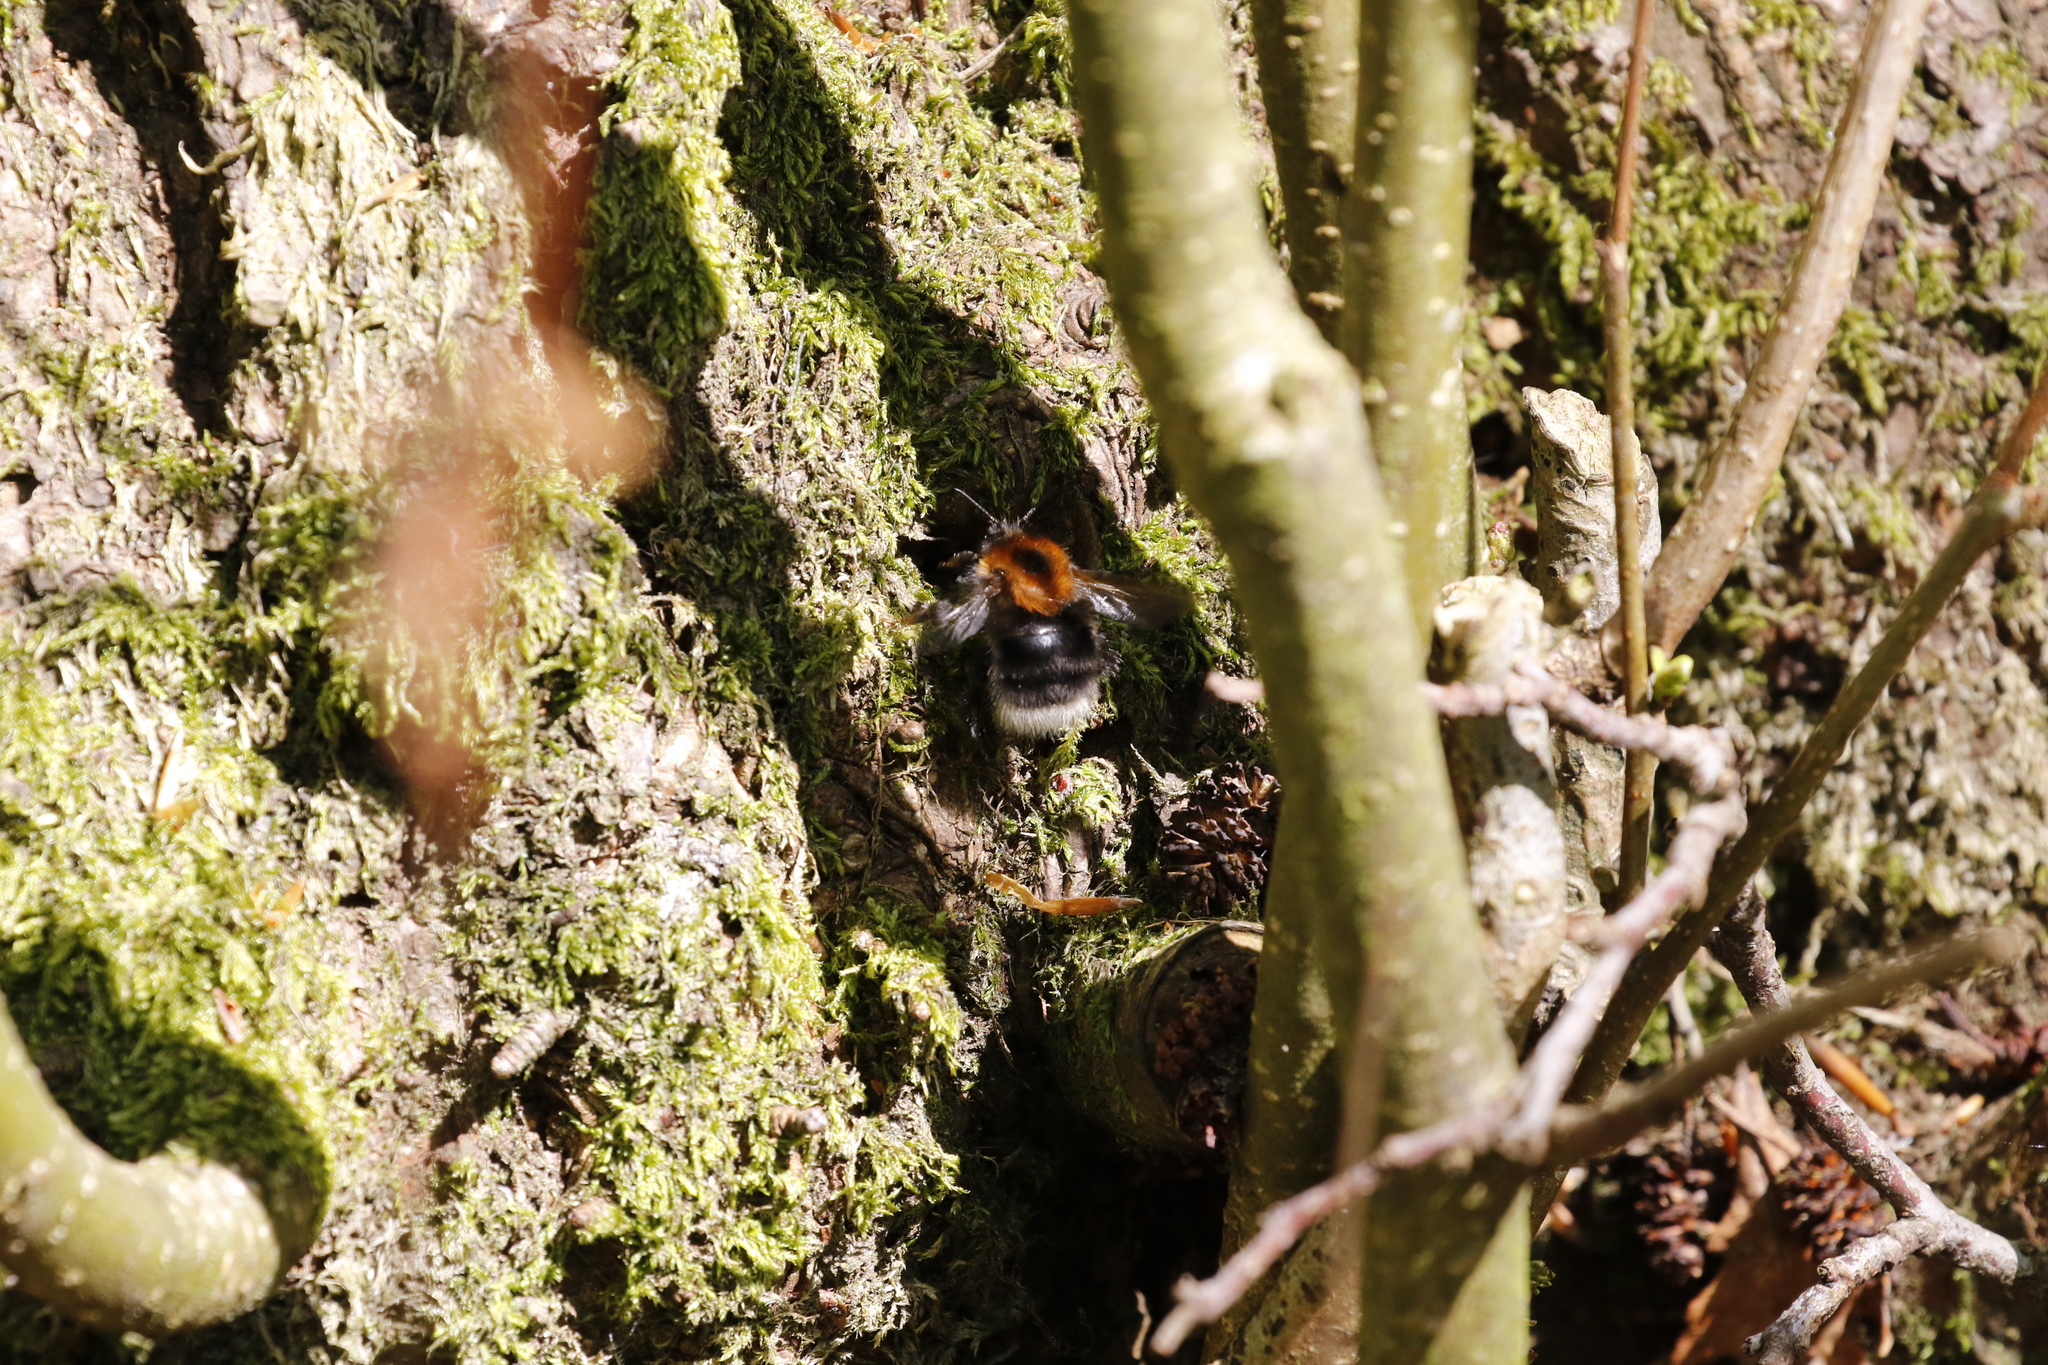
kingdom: Animalia
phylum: Arthropoda
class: Insecta
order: Hymenoptera
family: Apidae
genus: Bombus
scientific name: Bombus hypnorum
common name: New garden bumblebee
